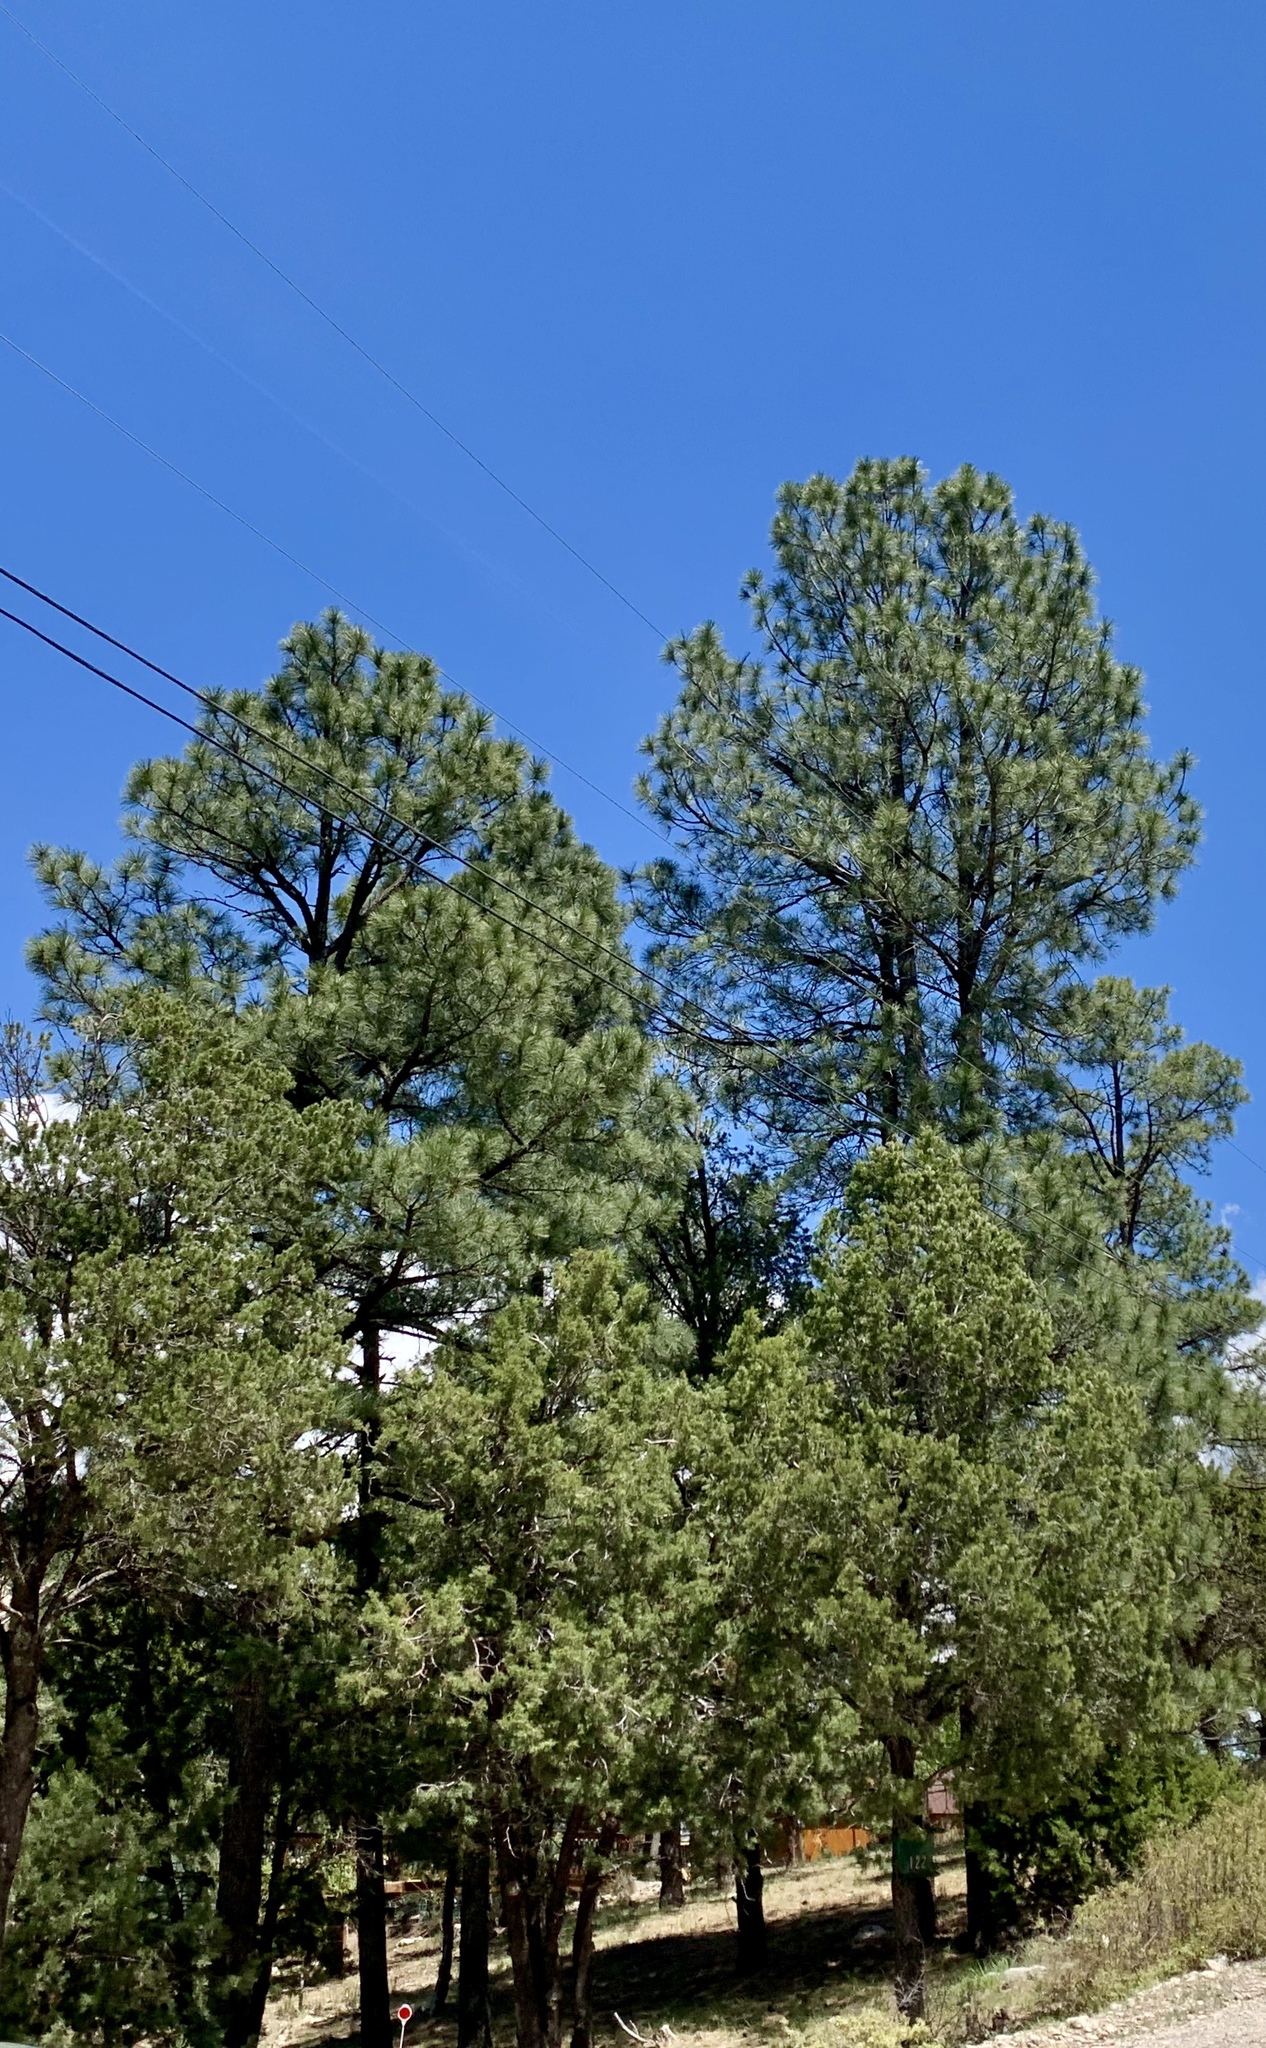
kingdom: Plantae
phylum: Tracheophyta
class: Pinopsida
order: Pinales
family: Pinaceae
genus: Pinus
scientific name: Pinus ponderosa
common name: Western yellow-pine
